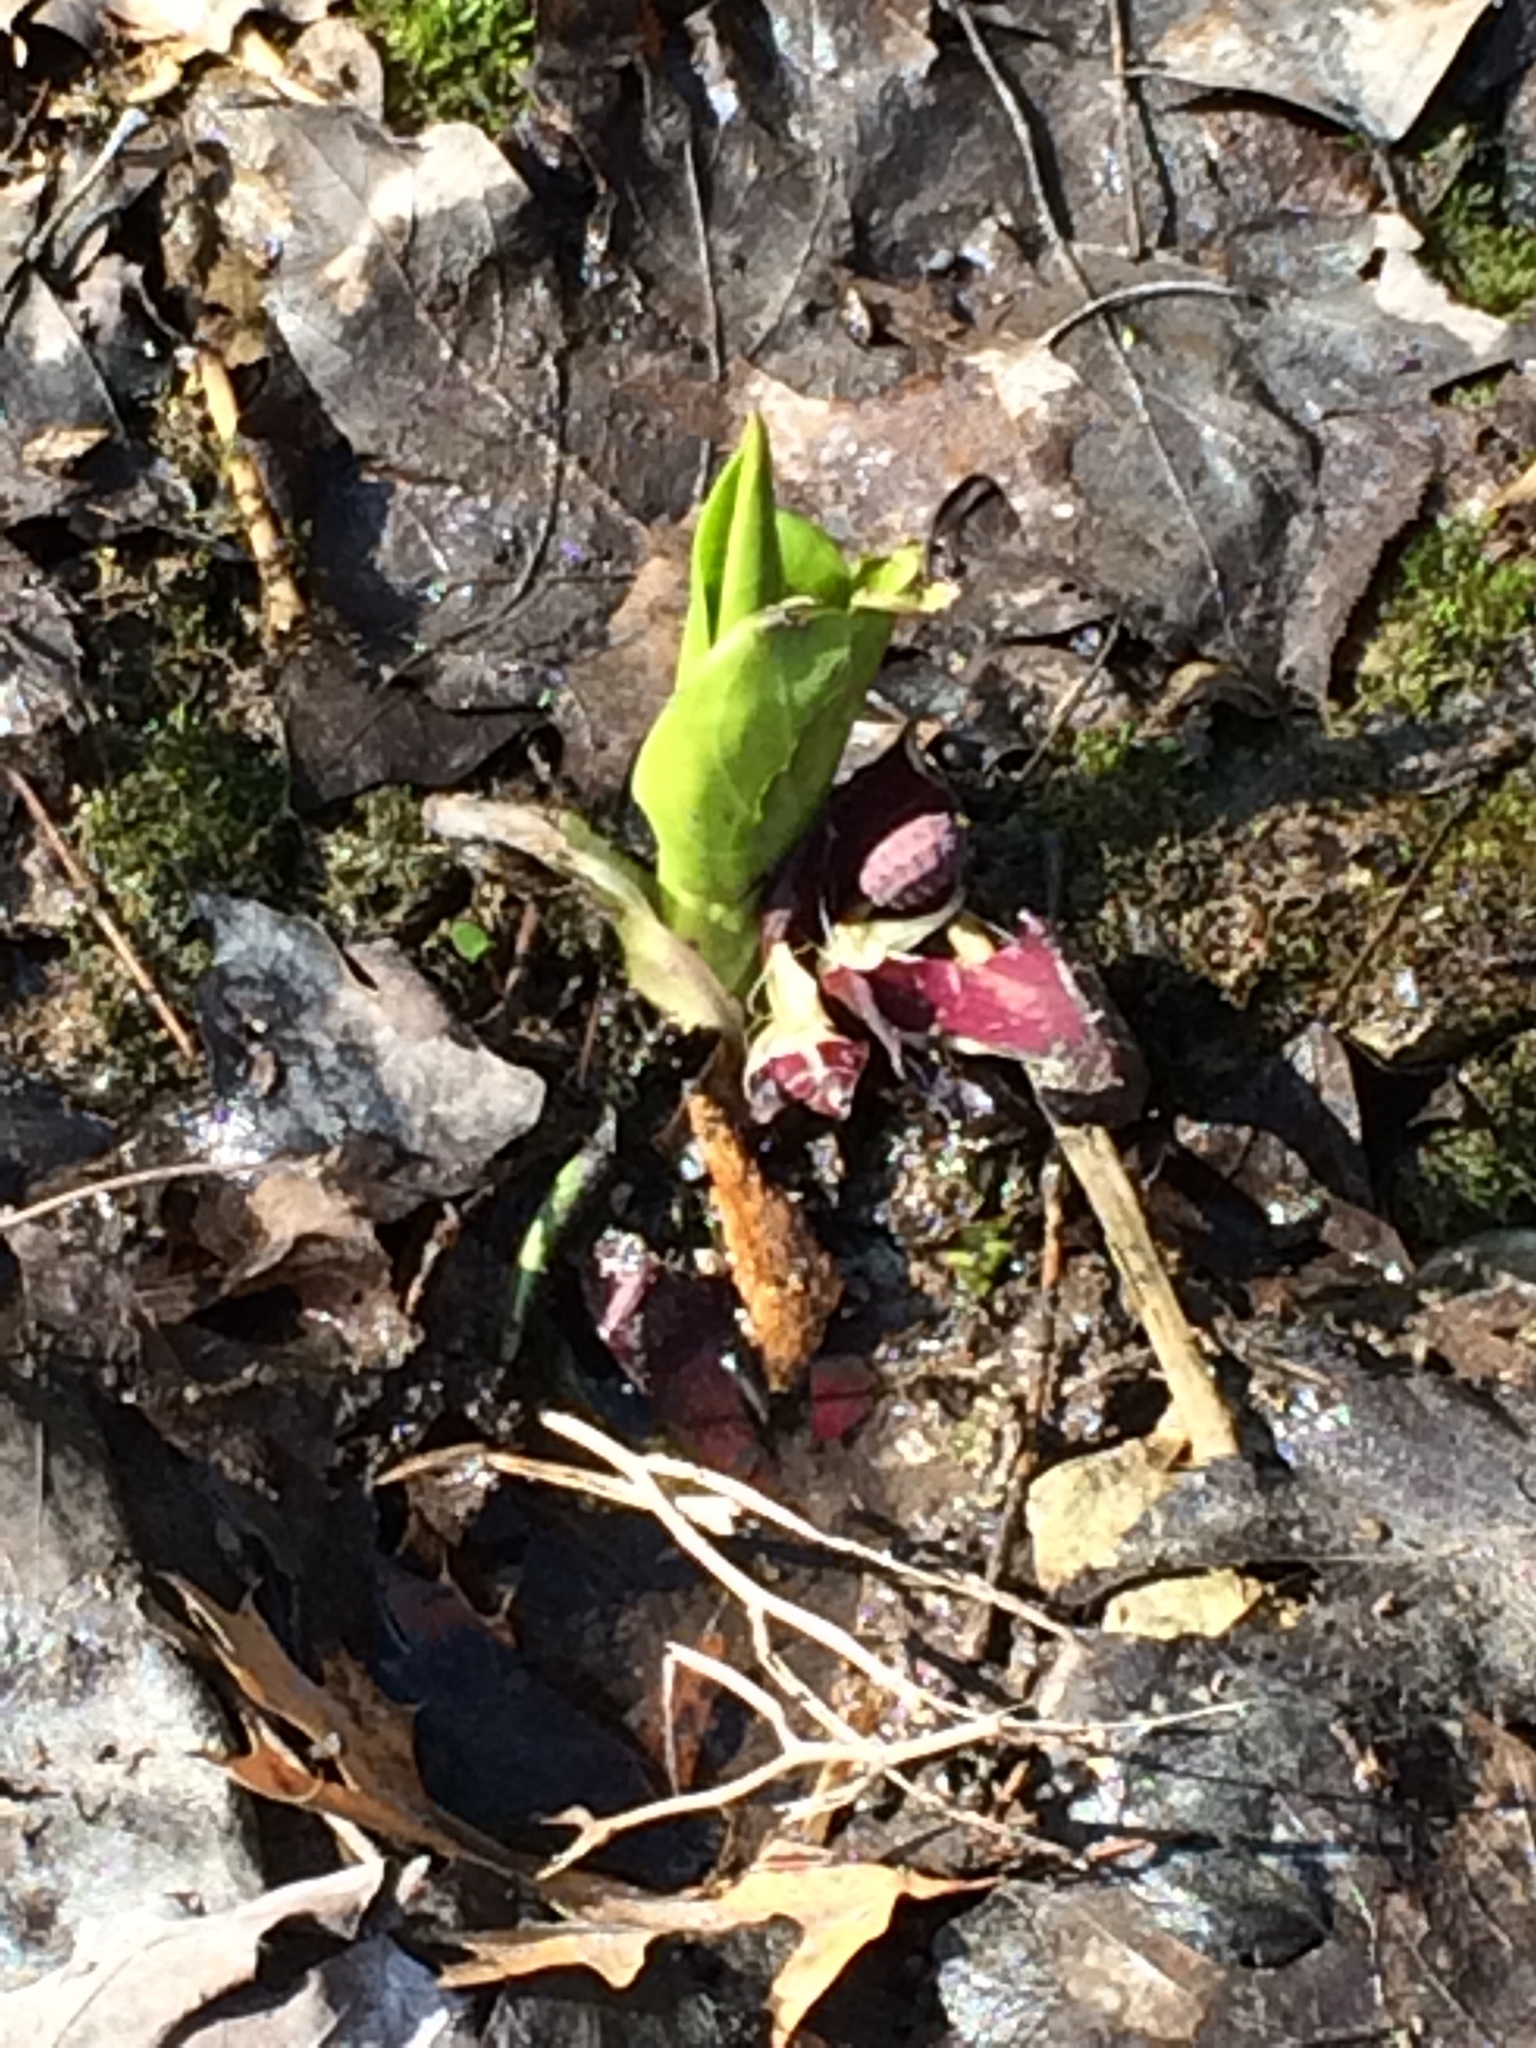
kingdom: Plantae
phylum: Tracheophyta
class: Liliopsida
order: Alismatales
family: Araceae
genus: Symplocarpus
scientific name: Symplocarpus foetidus
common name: Eastern skunk cabbage
